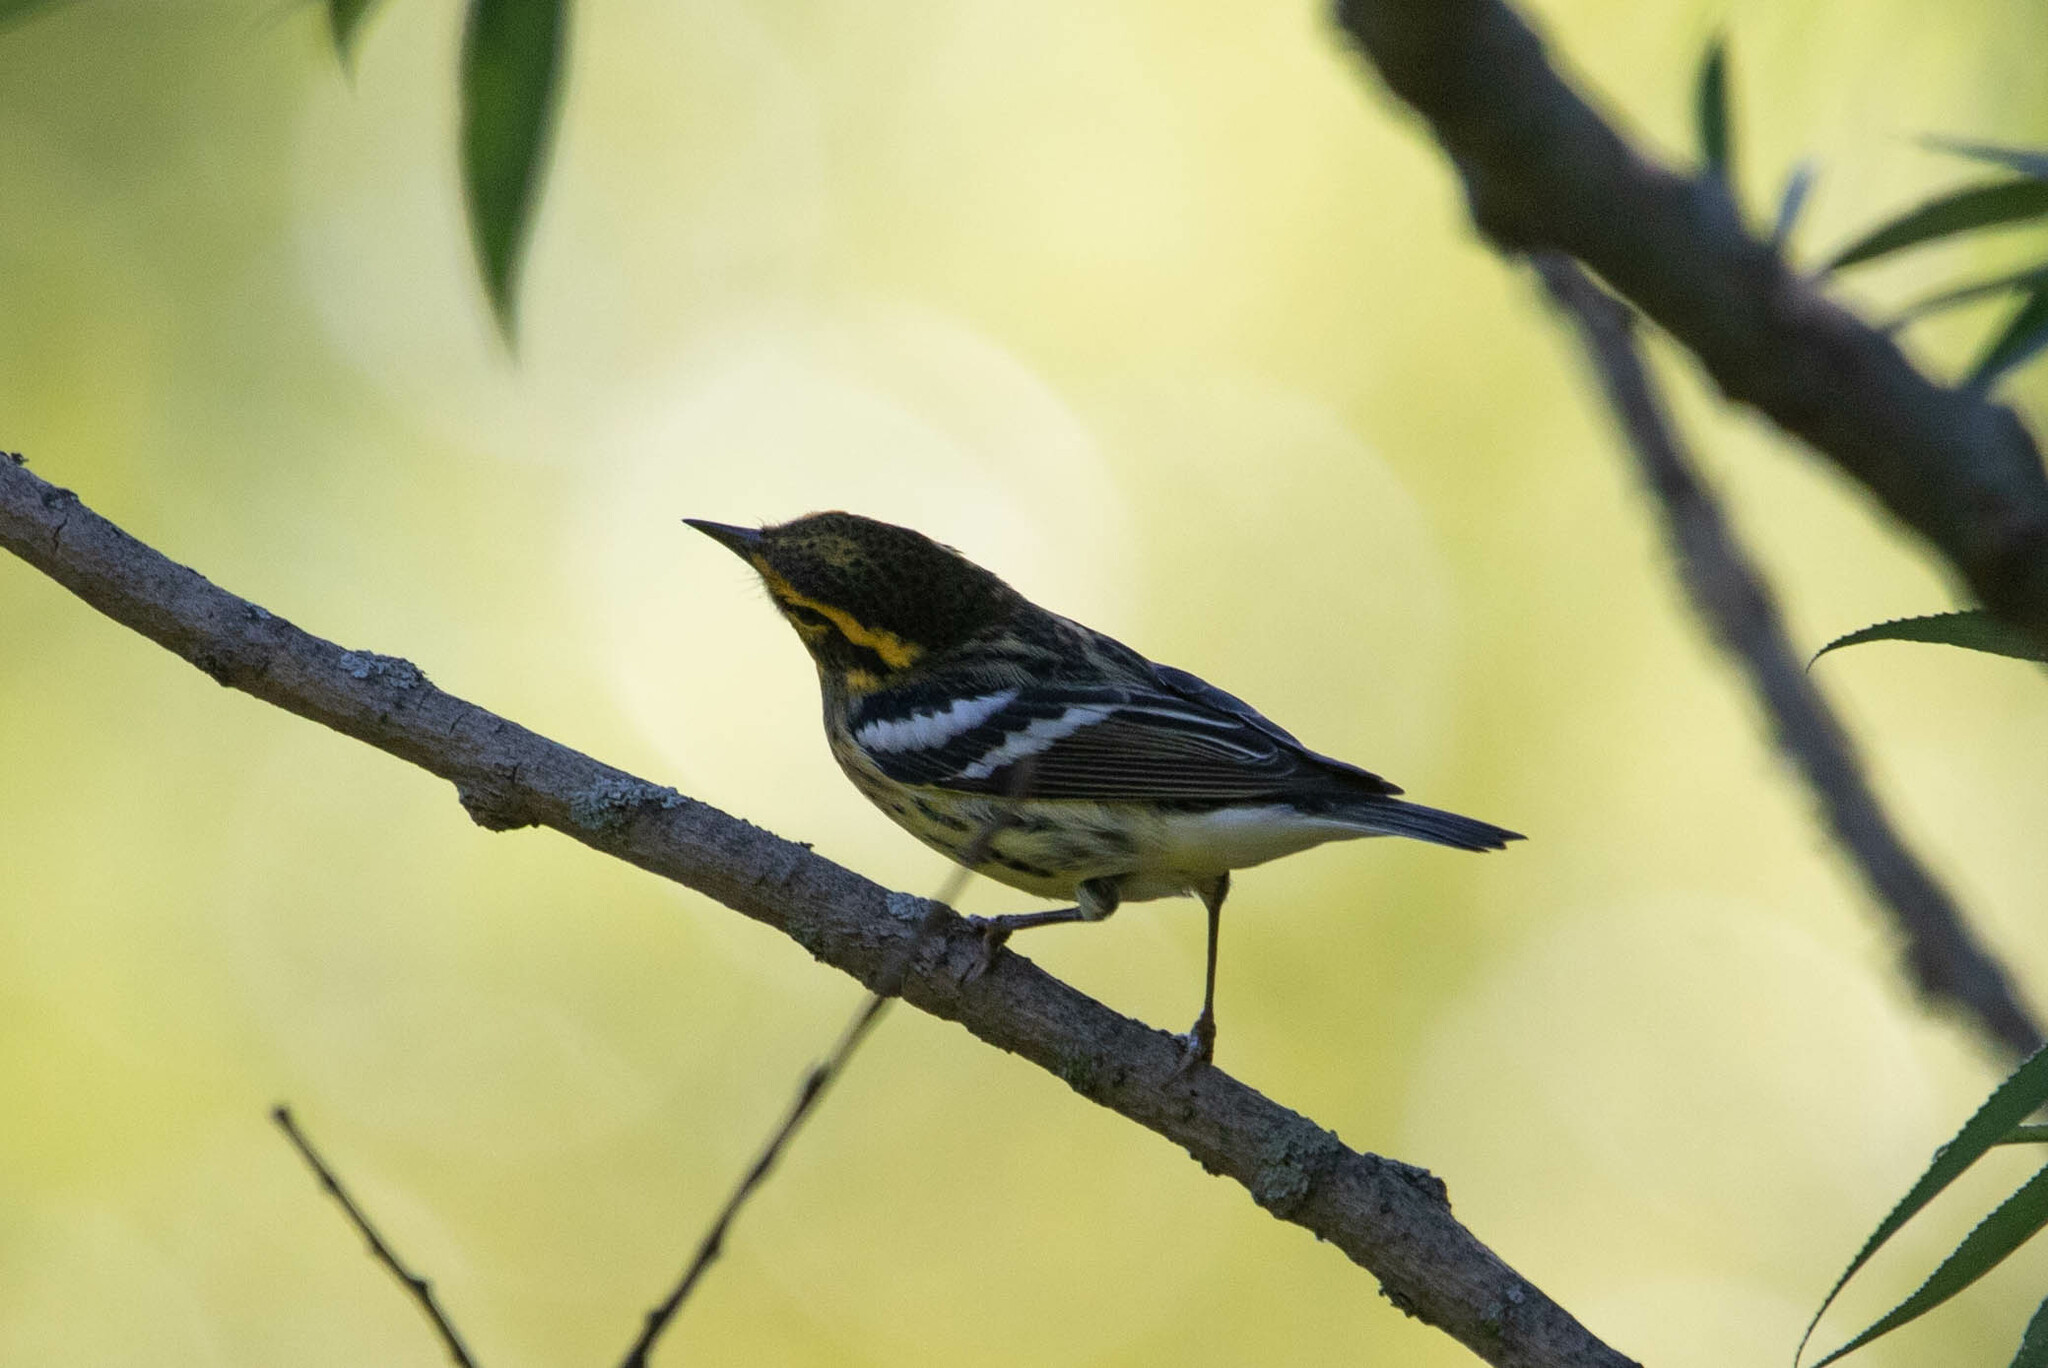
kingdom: Animalia
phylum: Chordata
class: Aves
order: Passeriformes
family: Parulidae
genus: Setophaga
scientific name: Setophaga fusca
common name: Blackburnian warbler
